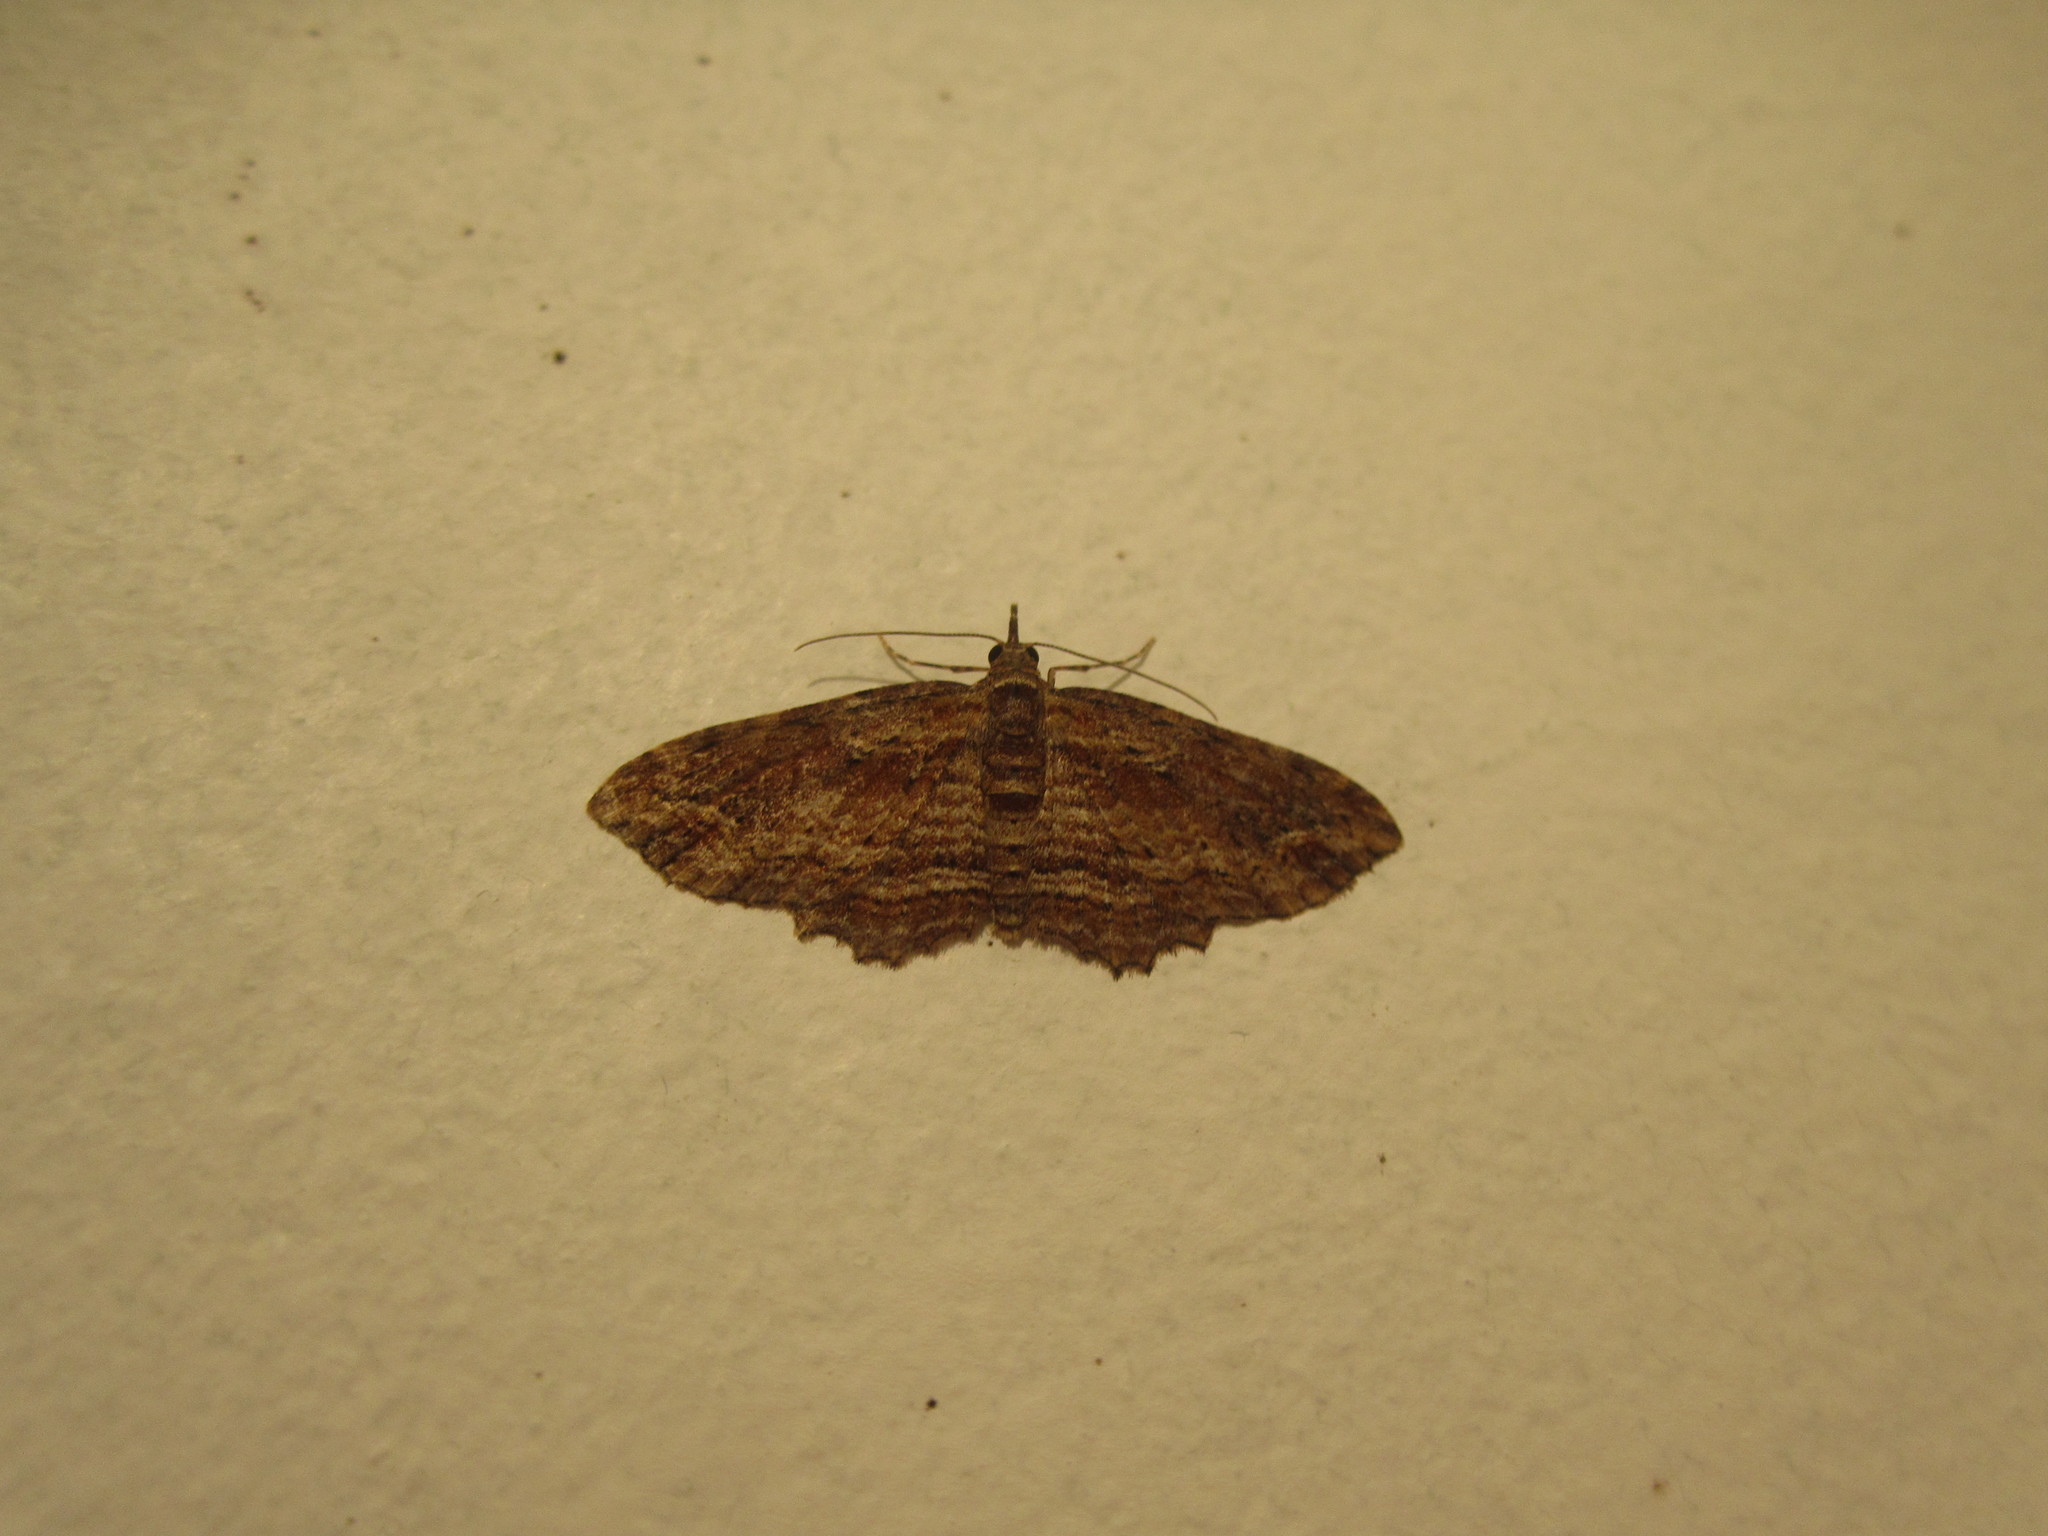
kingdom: Animalia
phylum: Arthropoda
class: Insecta
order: Lepidoptera
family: Geometridae
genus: Chloroclystis
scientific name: Chloroclystis filata
